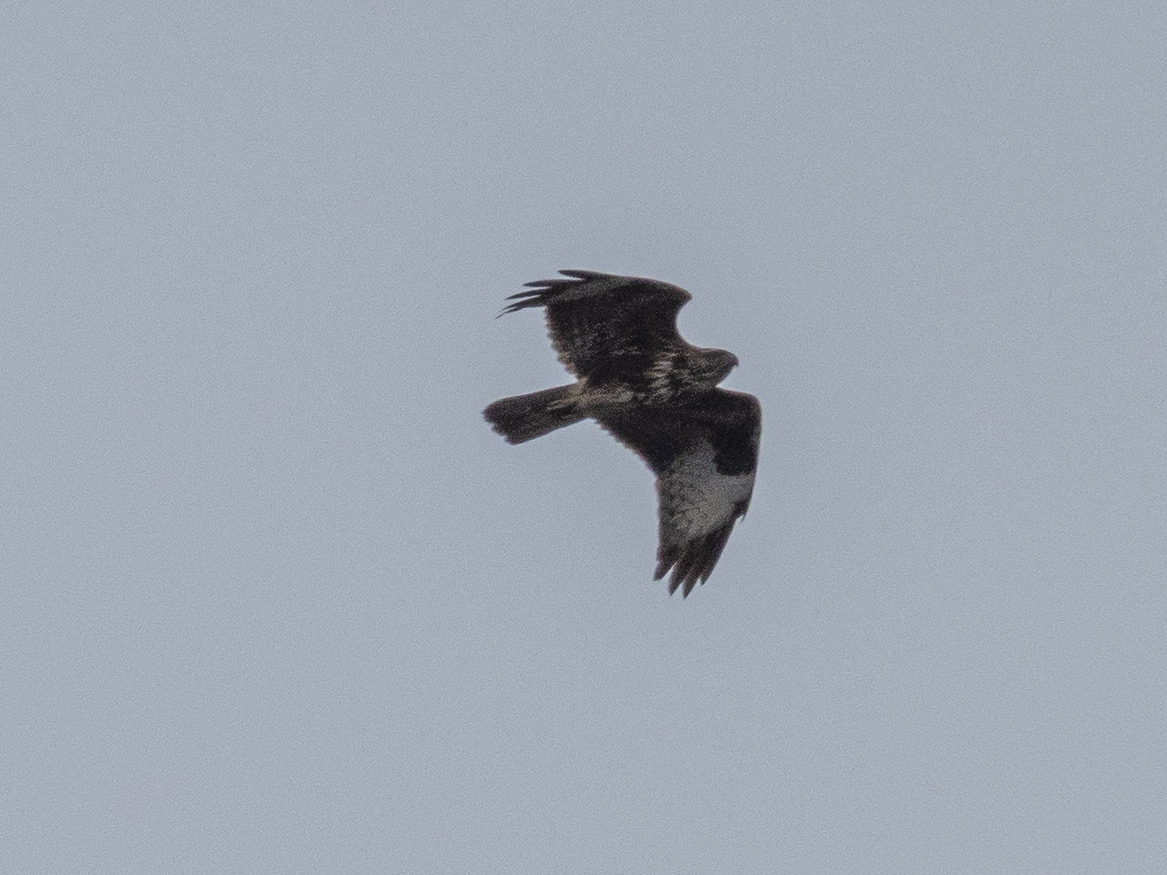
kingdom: Animalia
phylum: Chordata
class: Aves
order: Accipitriformes
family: Accipitridae
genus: Buteo
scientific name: Buteo buteo
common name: Common buzzard
